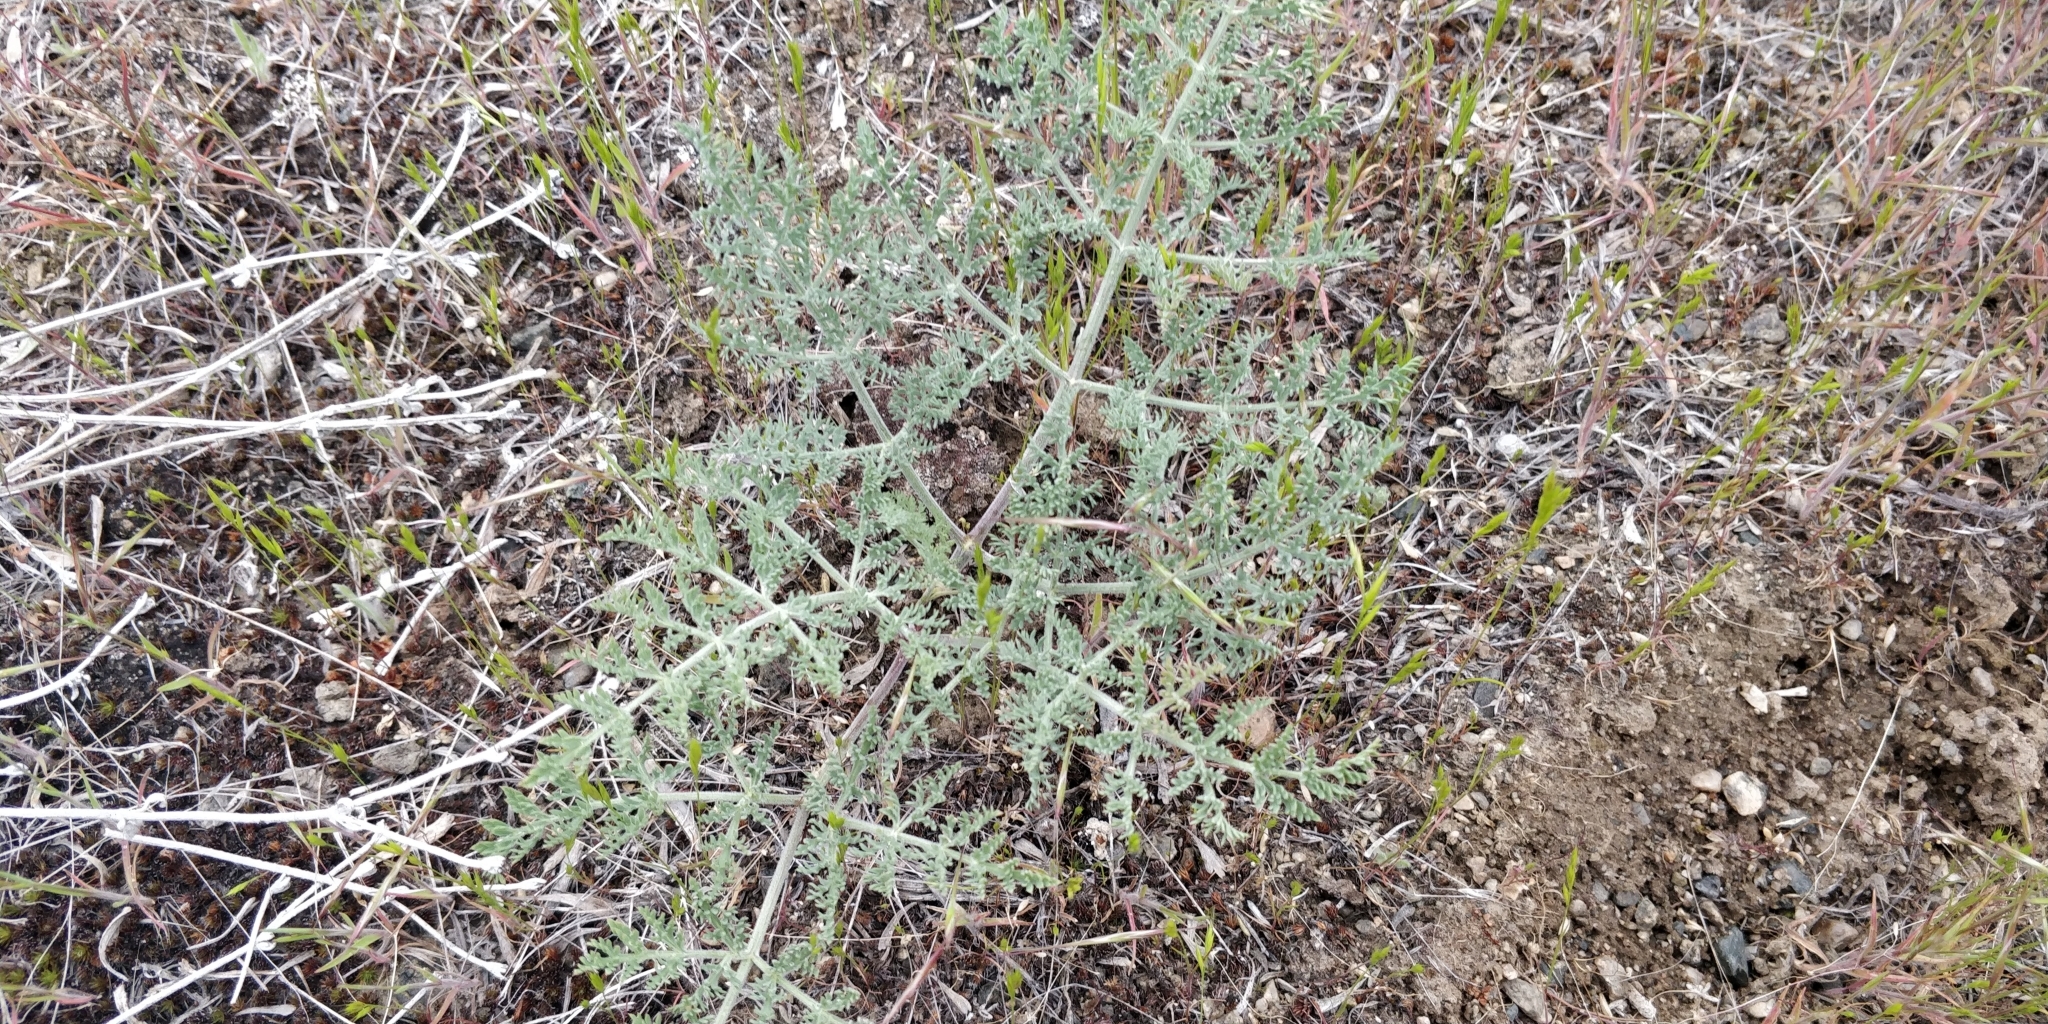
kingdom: Plantae
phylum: Tracheophyta
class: Magnoliopsida
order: Apiales
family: Apiaceae
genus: Lomatium
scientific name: Lomatium macrocarpum
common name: Big-seed biscuitroot
